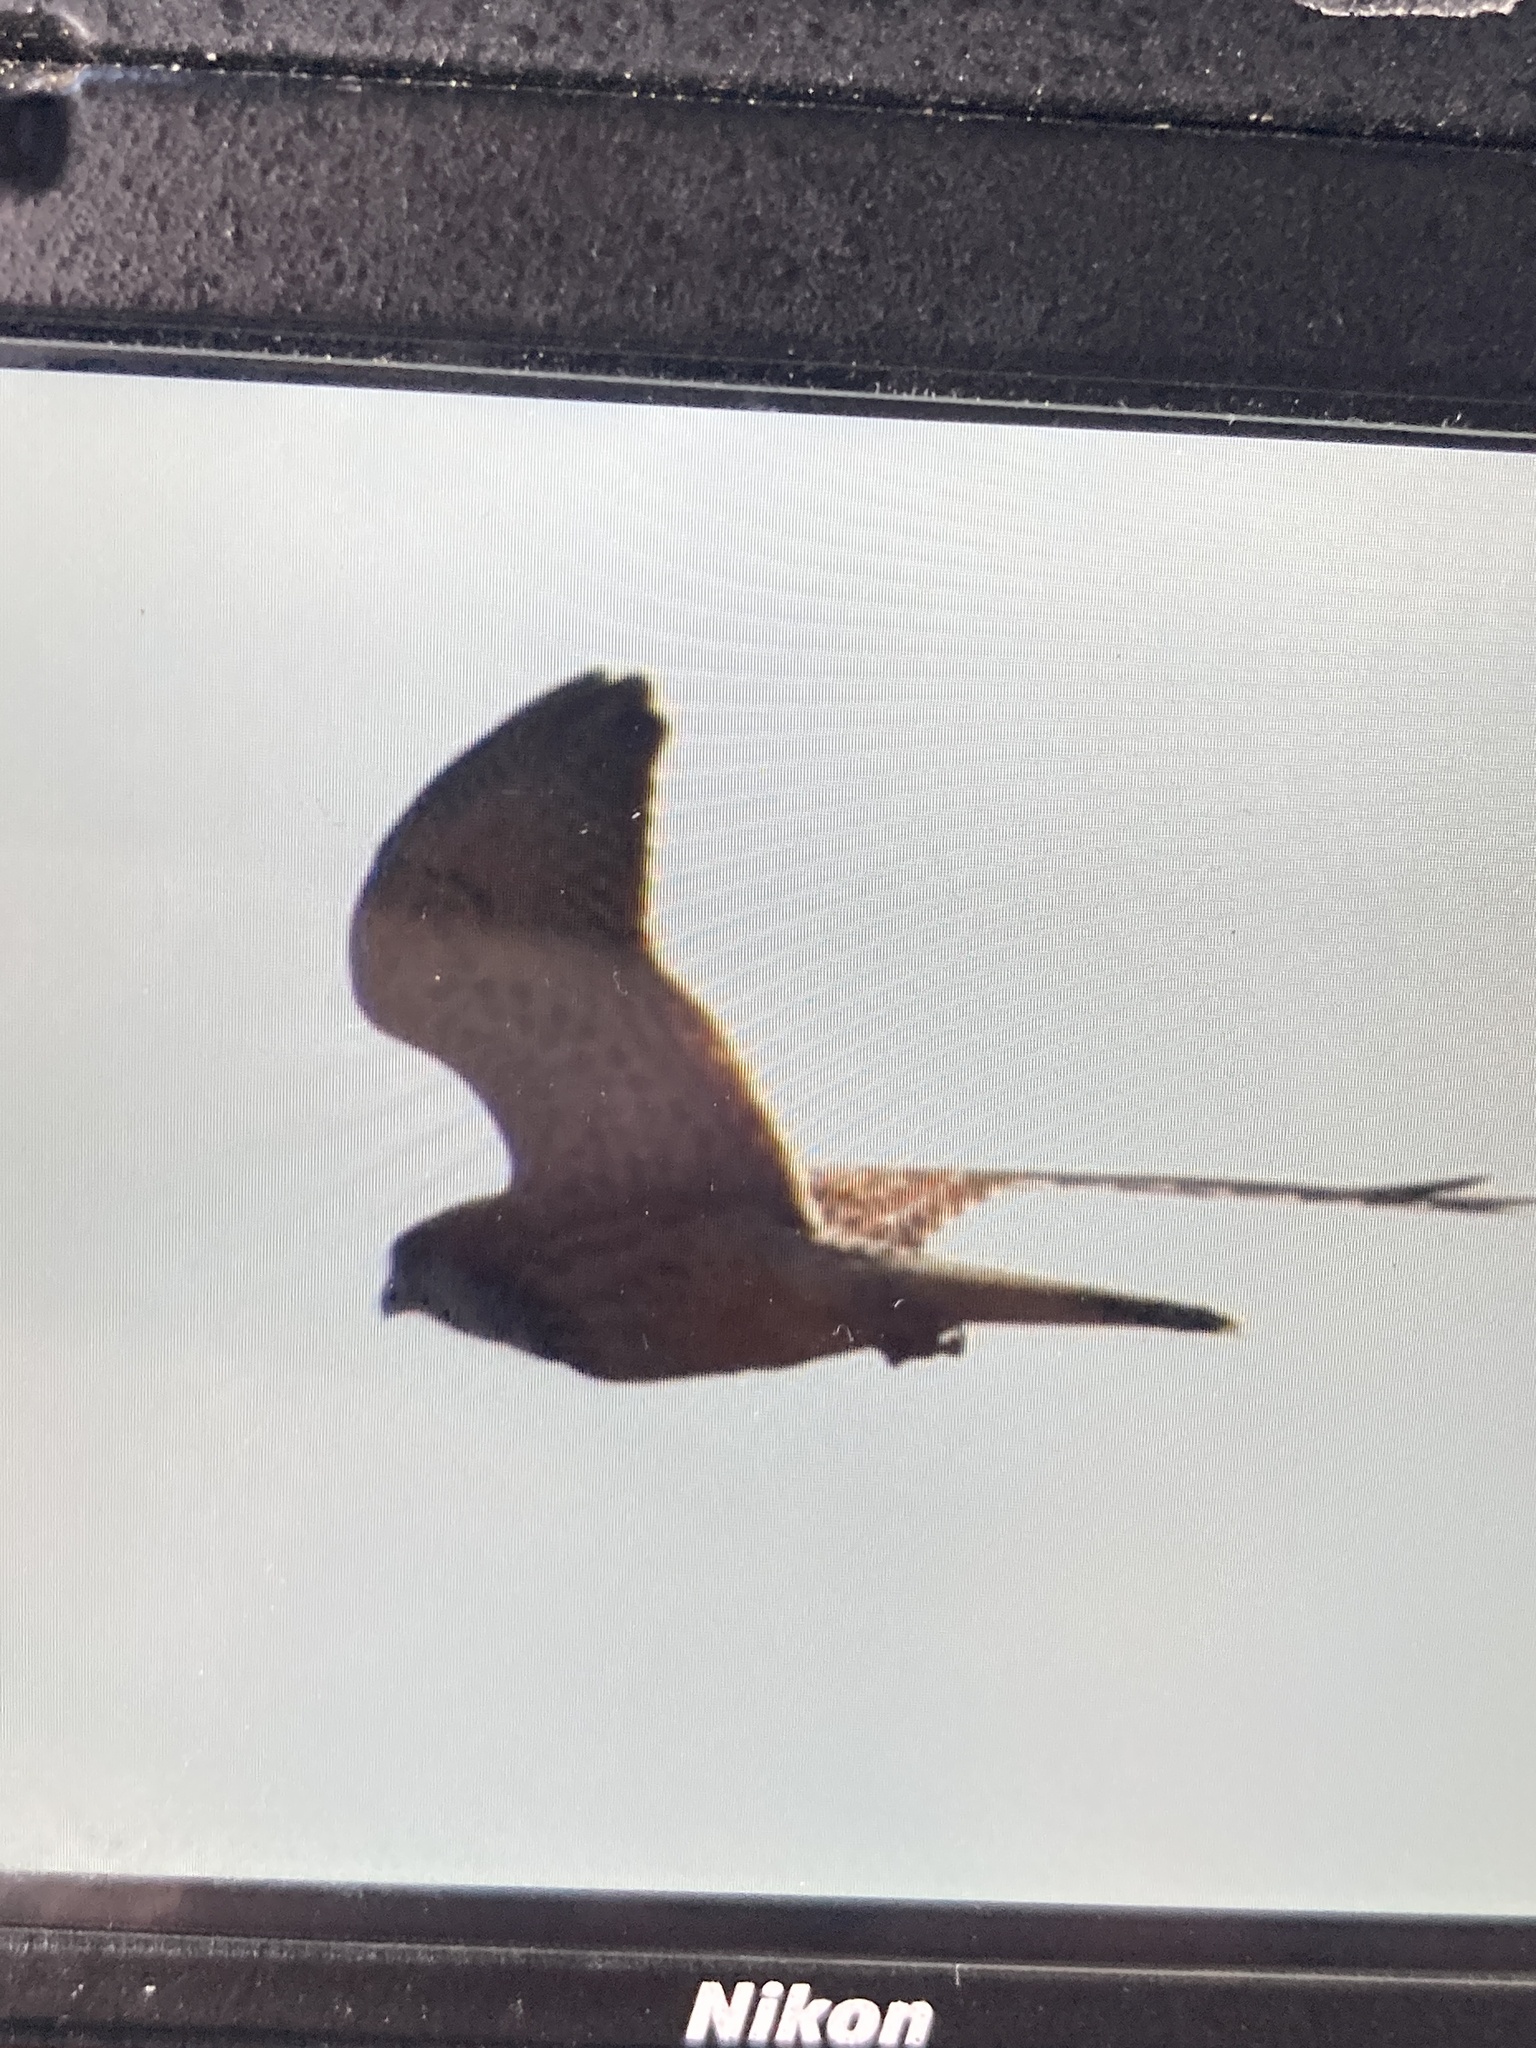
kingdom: Animalia
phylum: Chordata
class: Aves
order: Falconiformes
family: Falconidae
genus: Falco
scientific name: Falco tinnunculus
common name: Common kestrel
